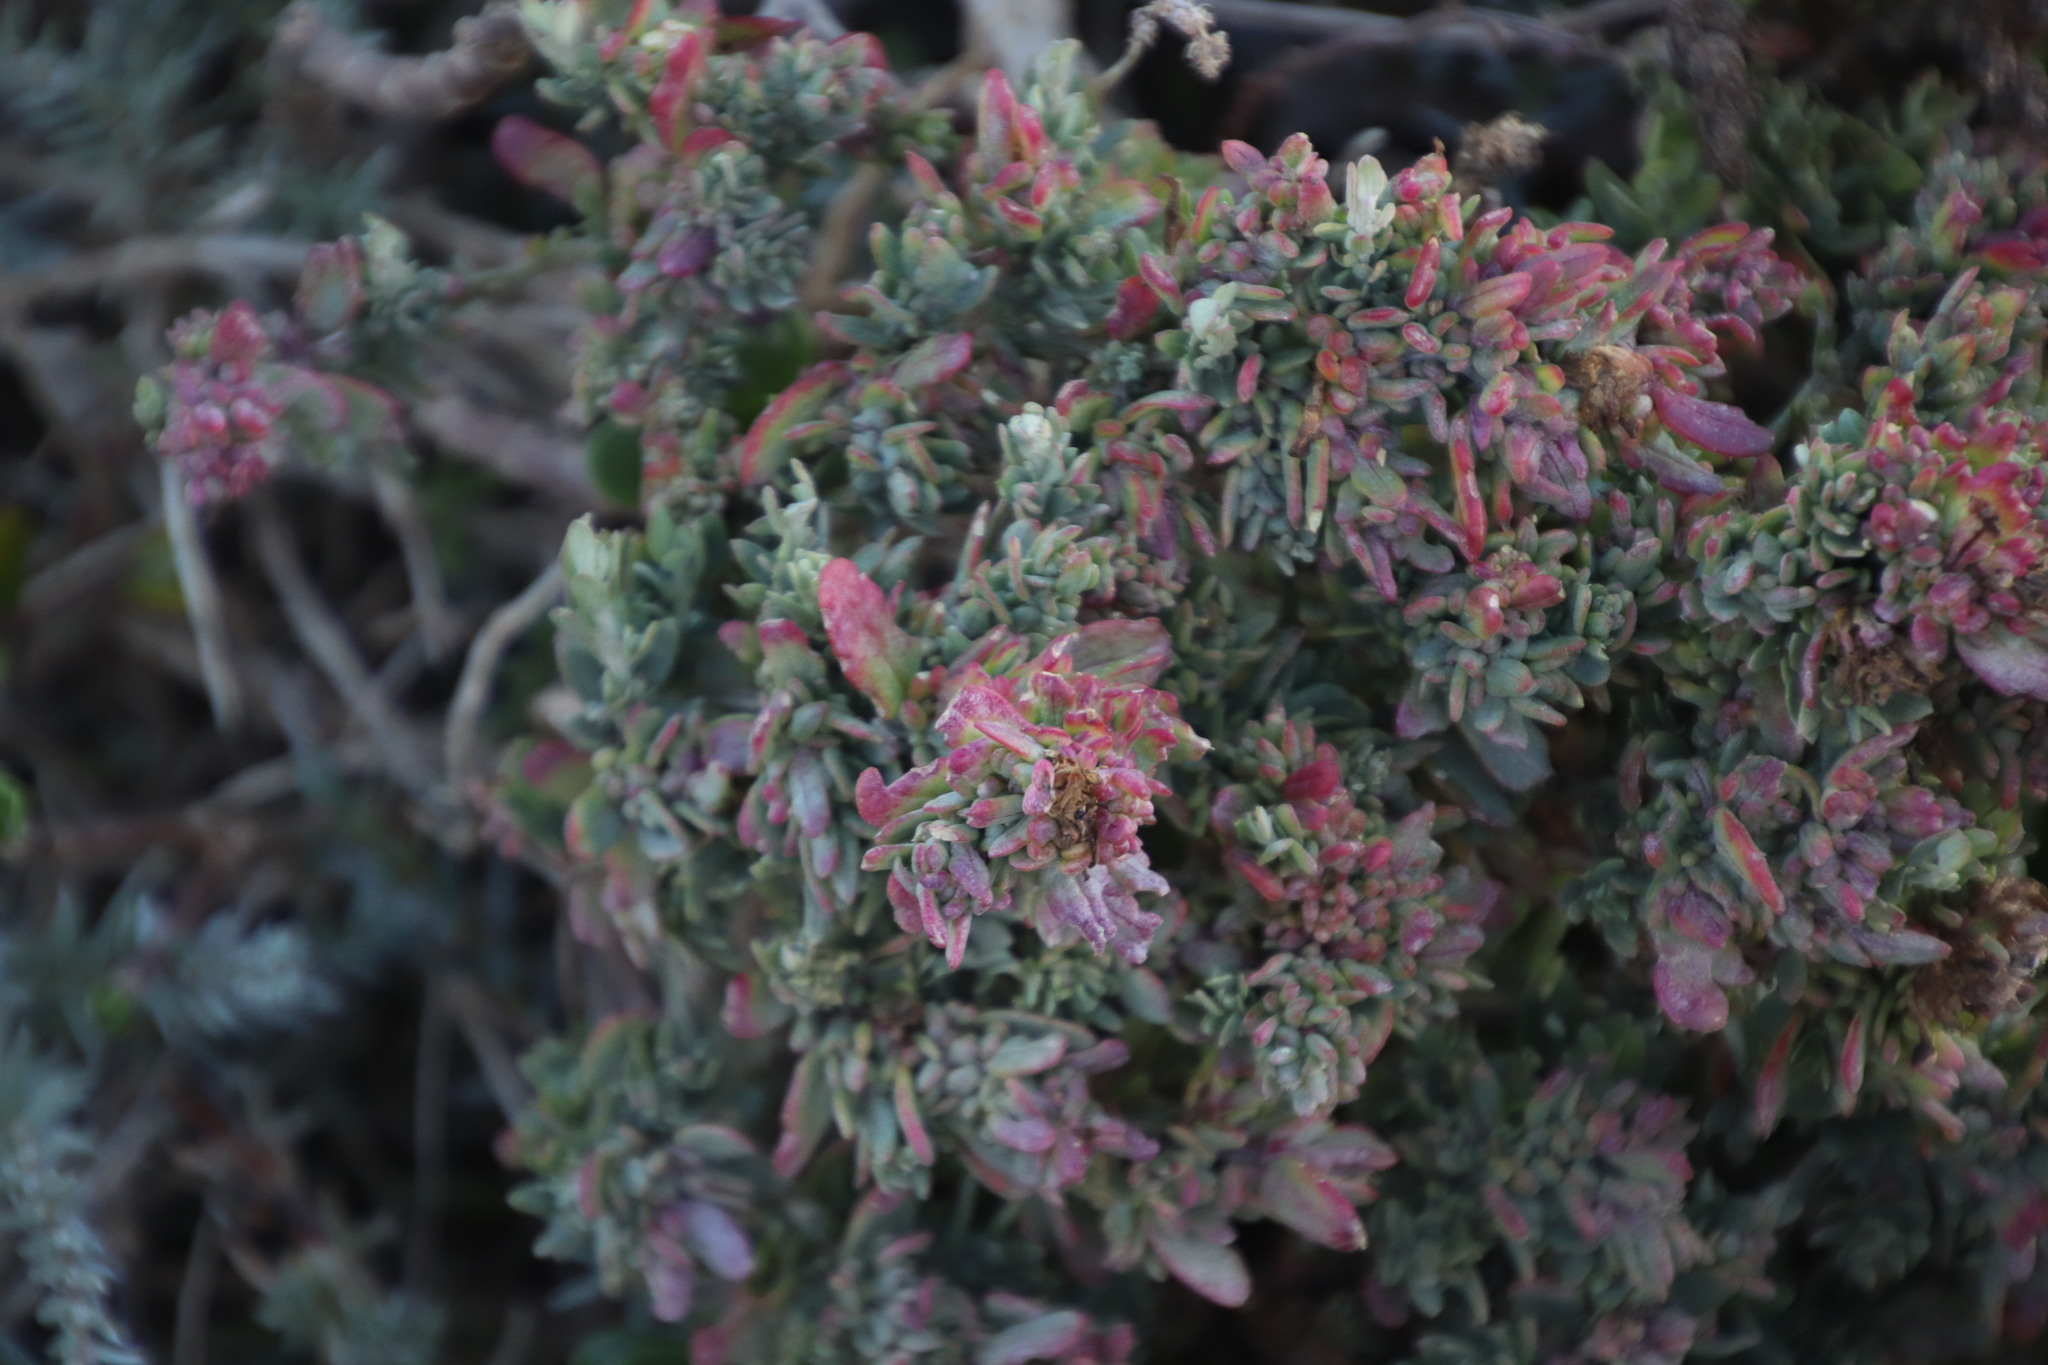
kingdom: Plantae
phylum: Tracheophyta
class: Magnoliopsida
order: Caryophyllales
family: Amaranthaceae
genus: Exomis
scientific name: Exomis microphylla
